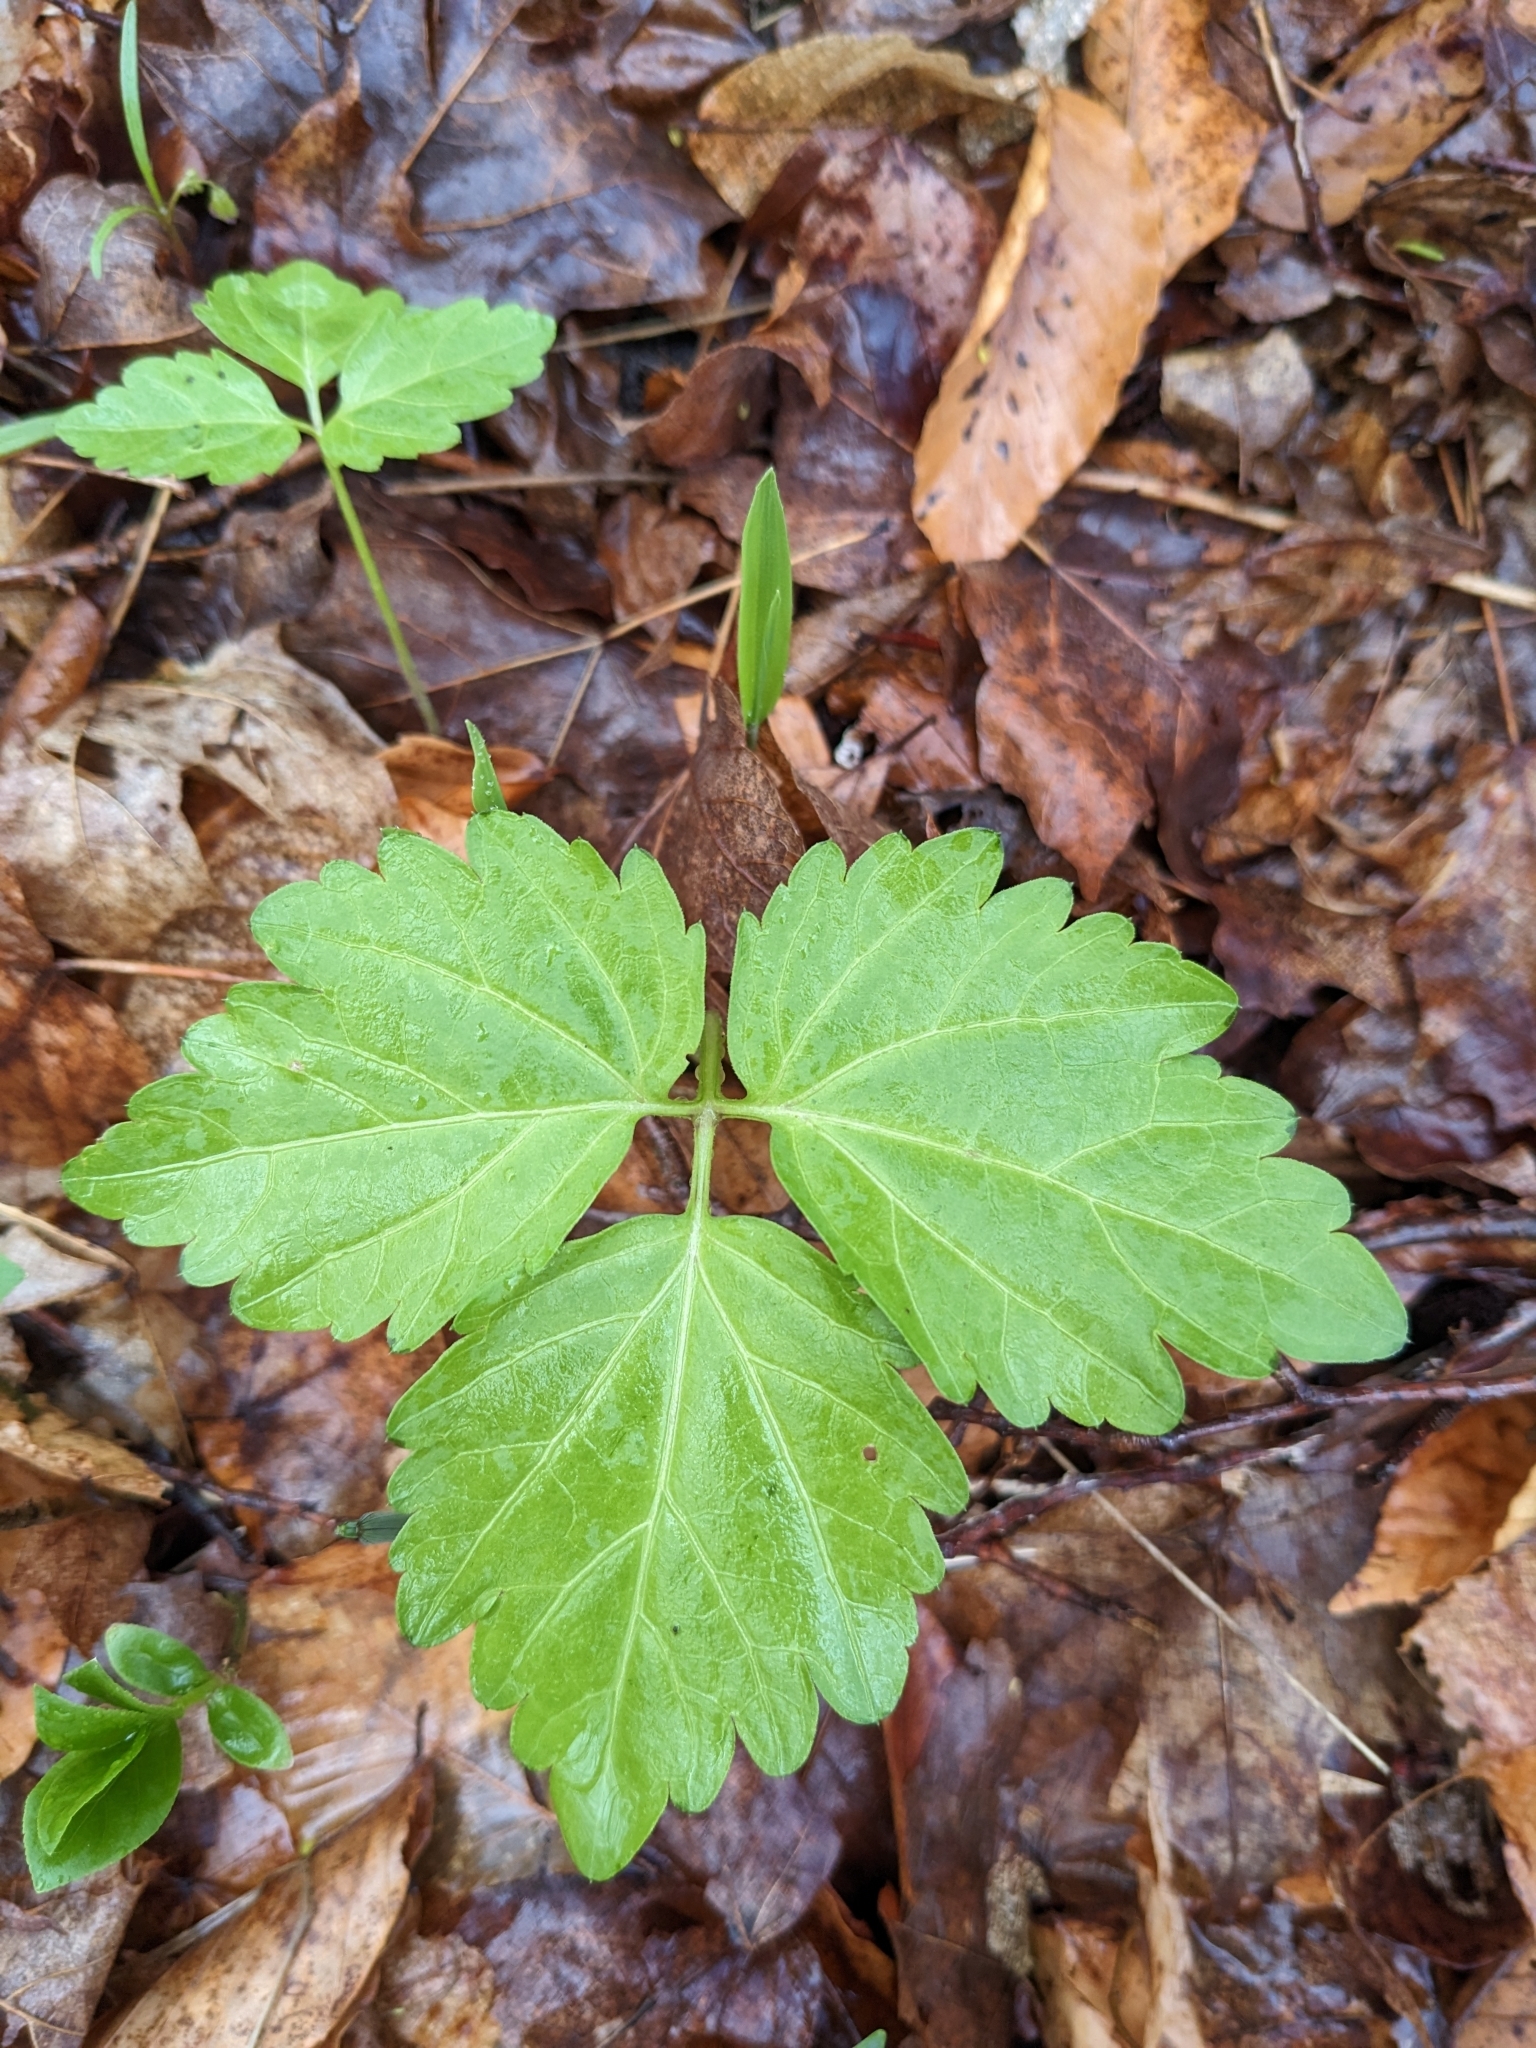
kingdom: Plantae
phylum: Tracheophyta
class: Magnoliopsida
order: Brassicales
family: Brassicaceae
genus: Cardamine
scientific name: Cardamine diphylla
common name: Broad-leaved toothwort
